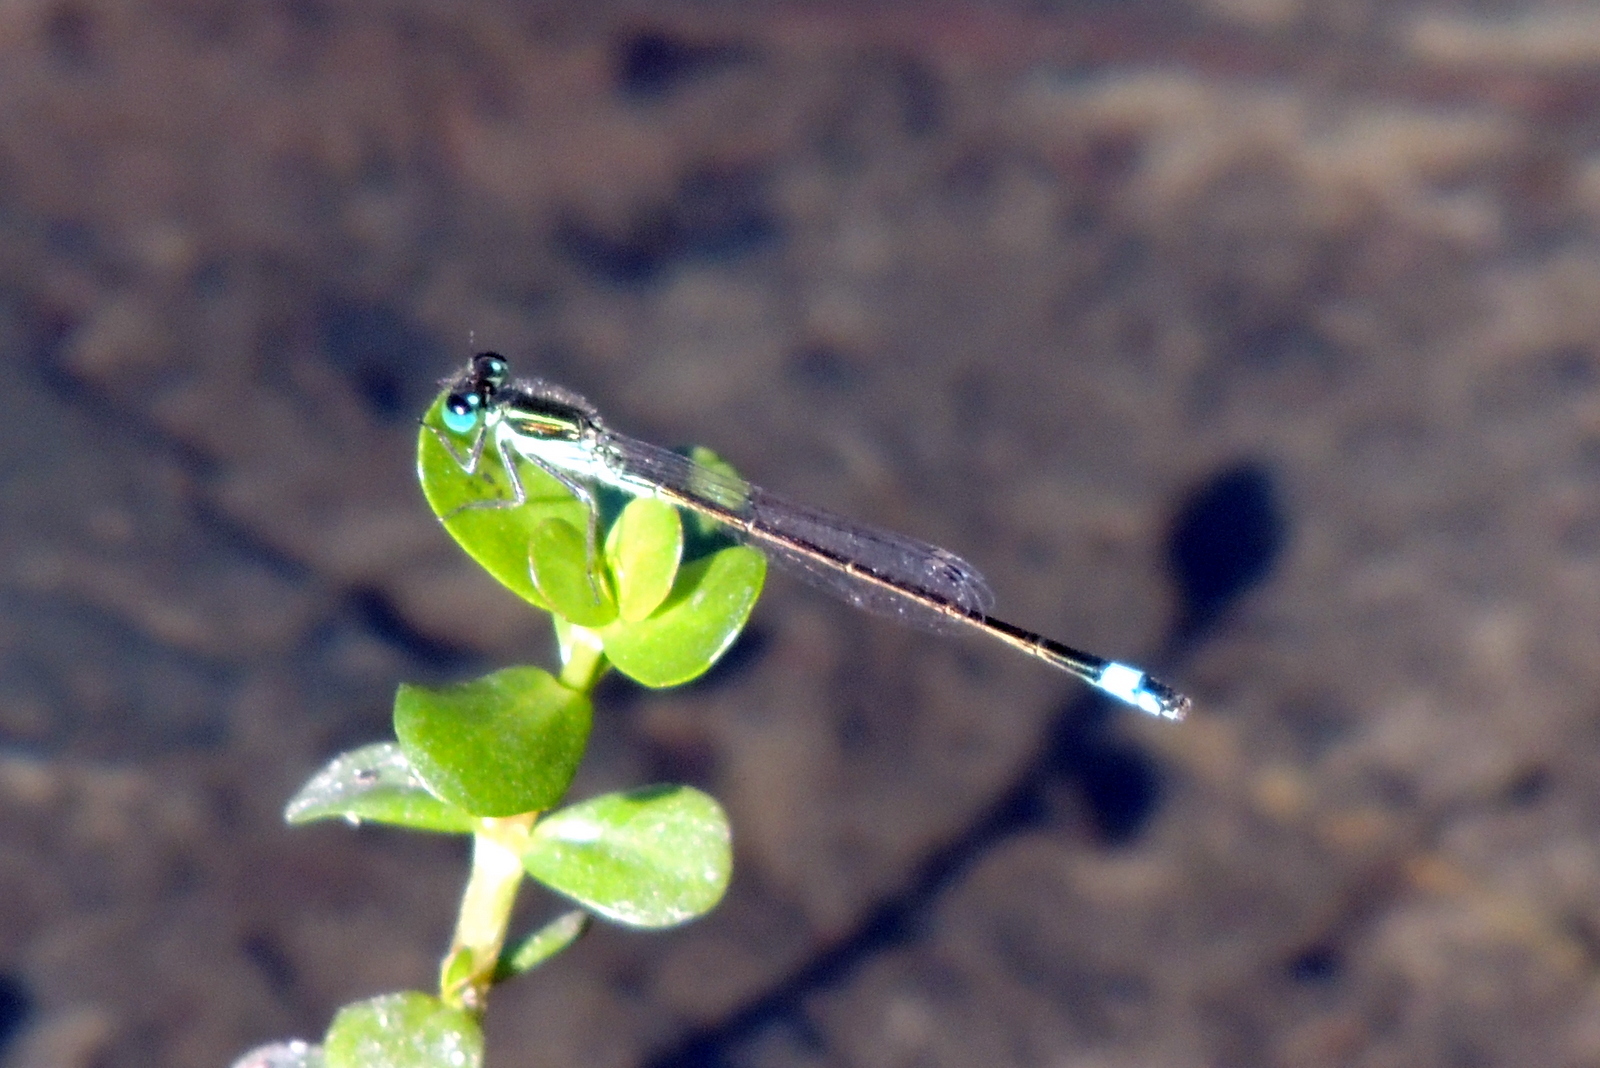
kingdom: Animalia
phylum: Arthropoda
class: Insecta
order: Odonata
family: Coenagrionidae
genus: Ischnura
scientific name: Ischnura ramburii
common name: Rambur's forktail
